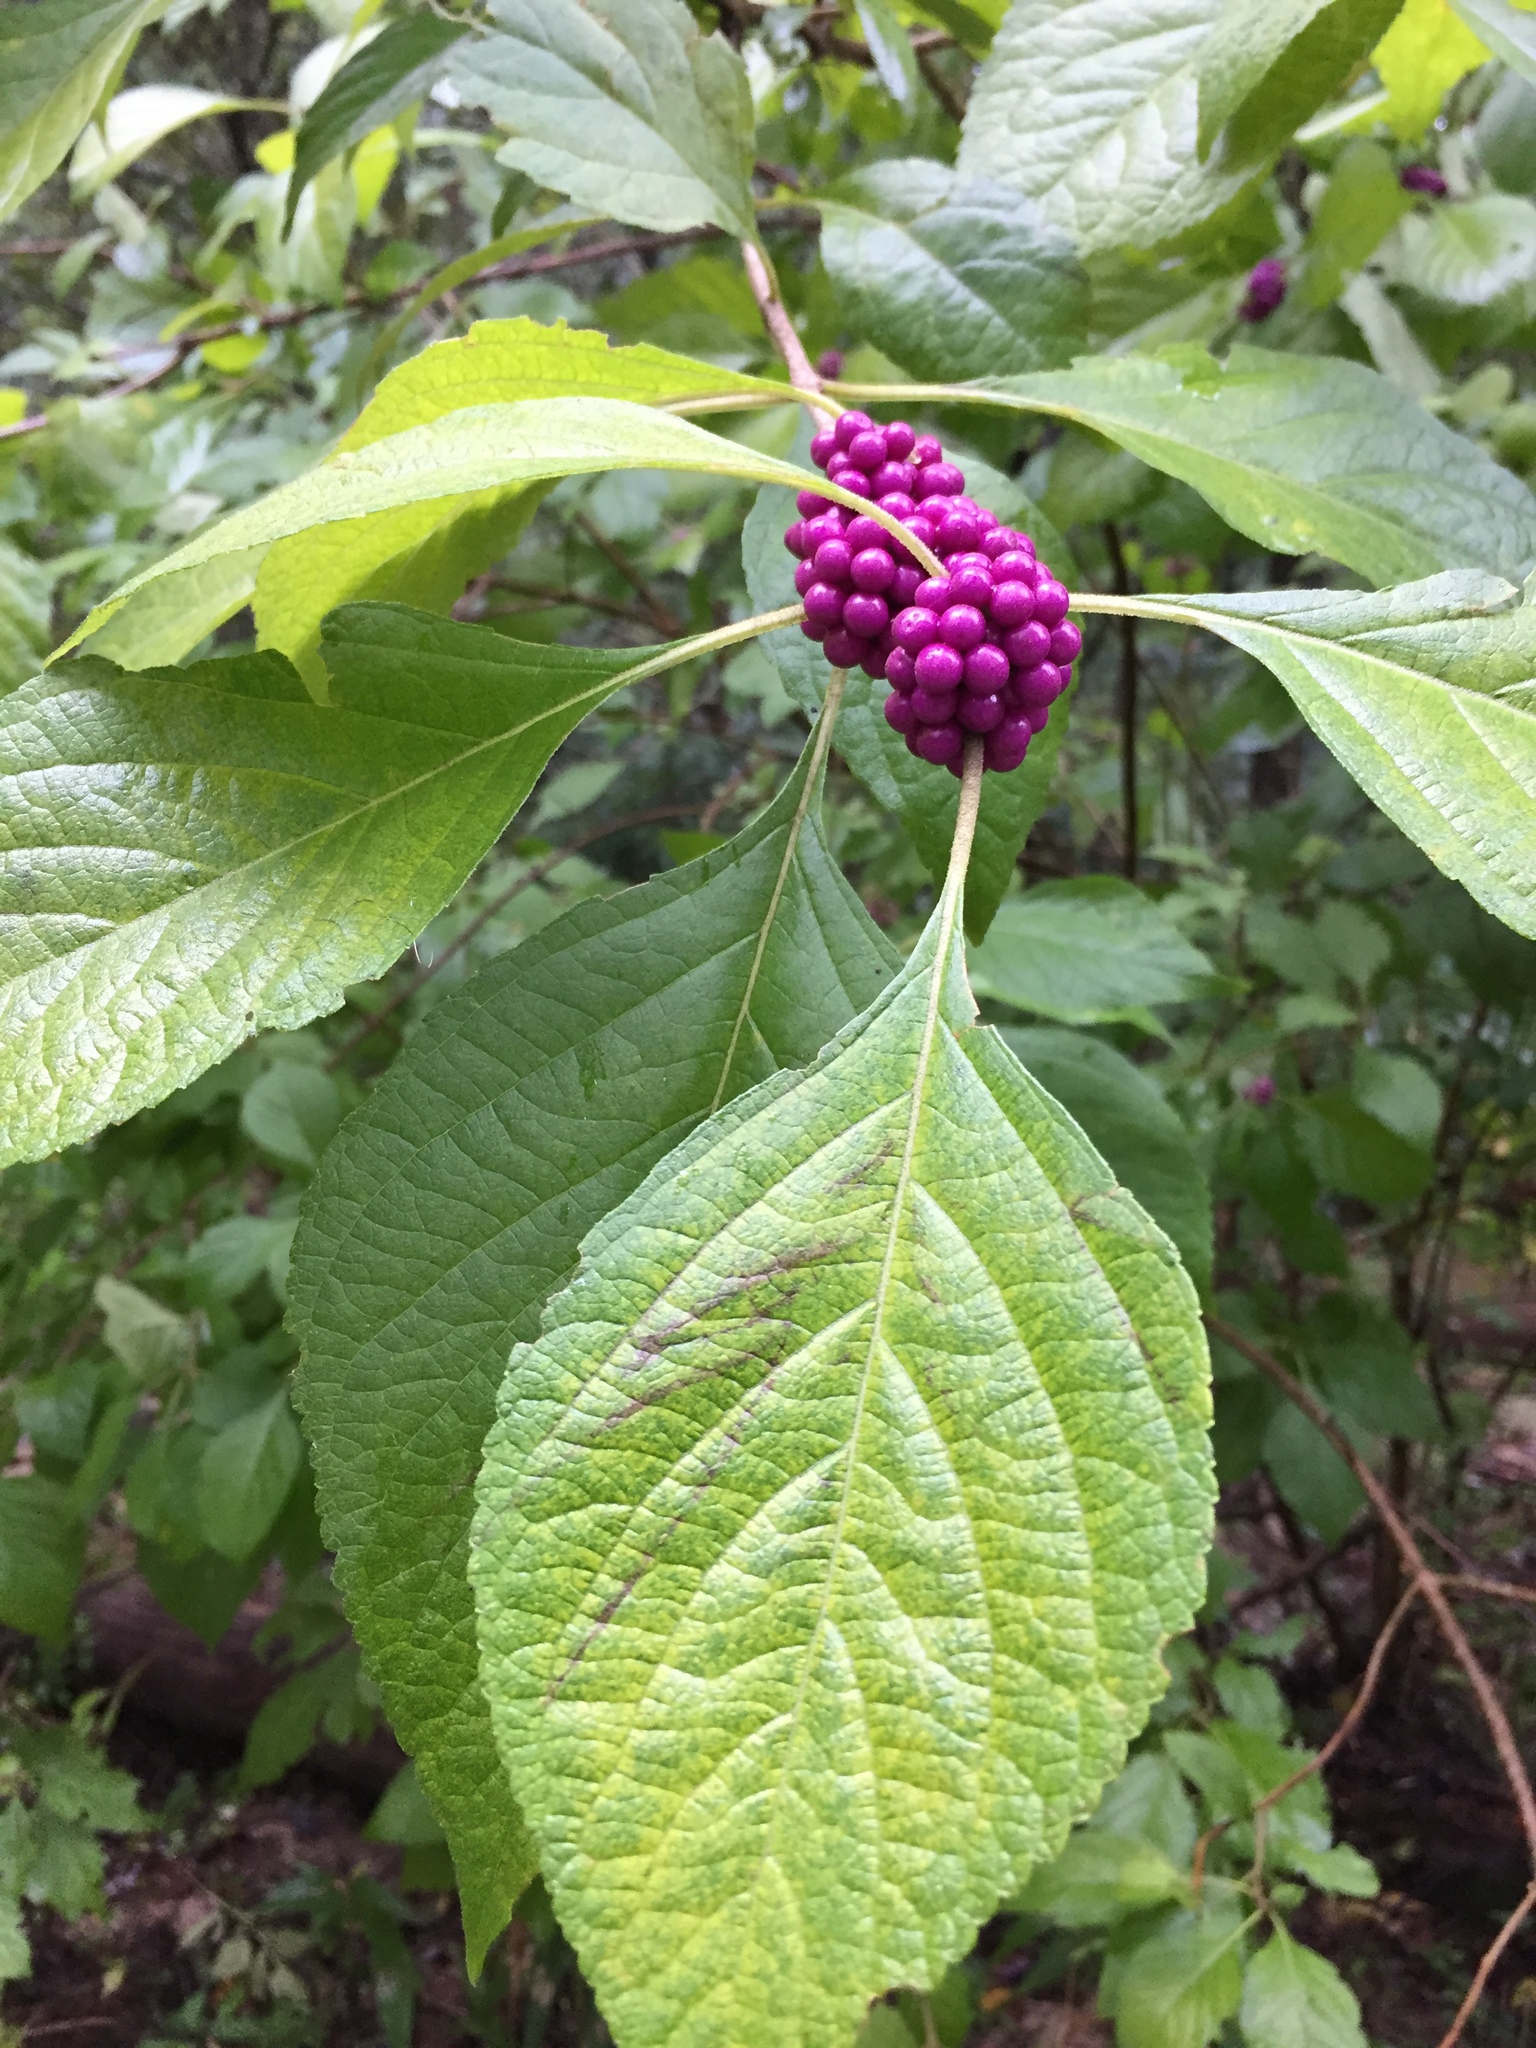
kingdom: Plantae
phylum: Tracheophyta
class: Magnoliopsida
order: Lamiales
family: Lamiaceae
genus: Callicarpa
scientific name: Callicarpa americana
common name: American beautyberry
